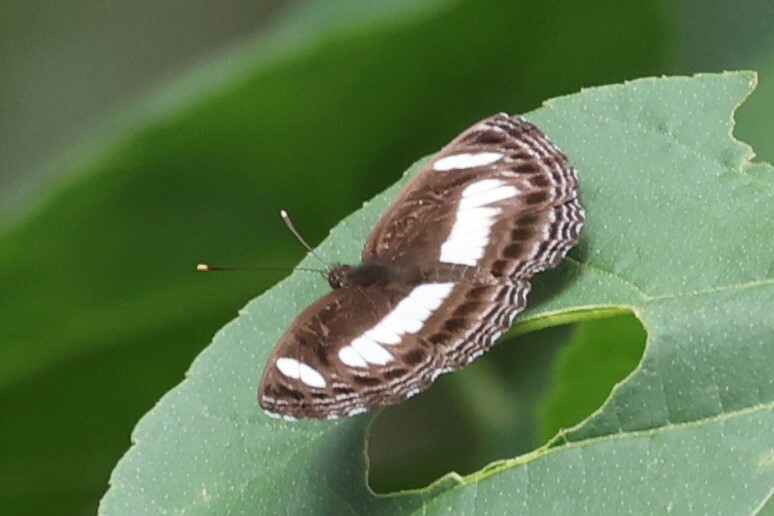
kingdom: Animalia
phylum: Arthropoda
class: Insecta
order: Lepidoptera
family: Nymphalidae
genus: Neptis
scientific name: Neptis nemetes
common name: Nemetes sailer
